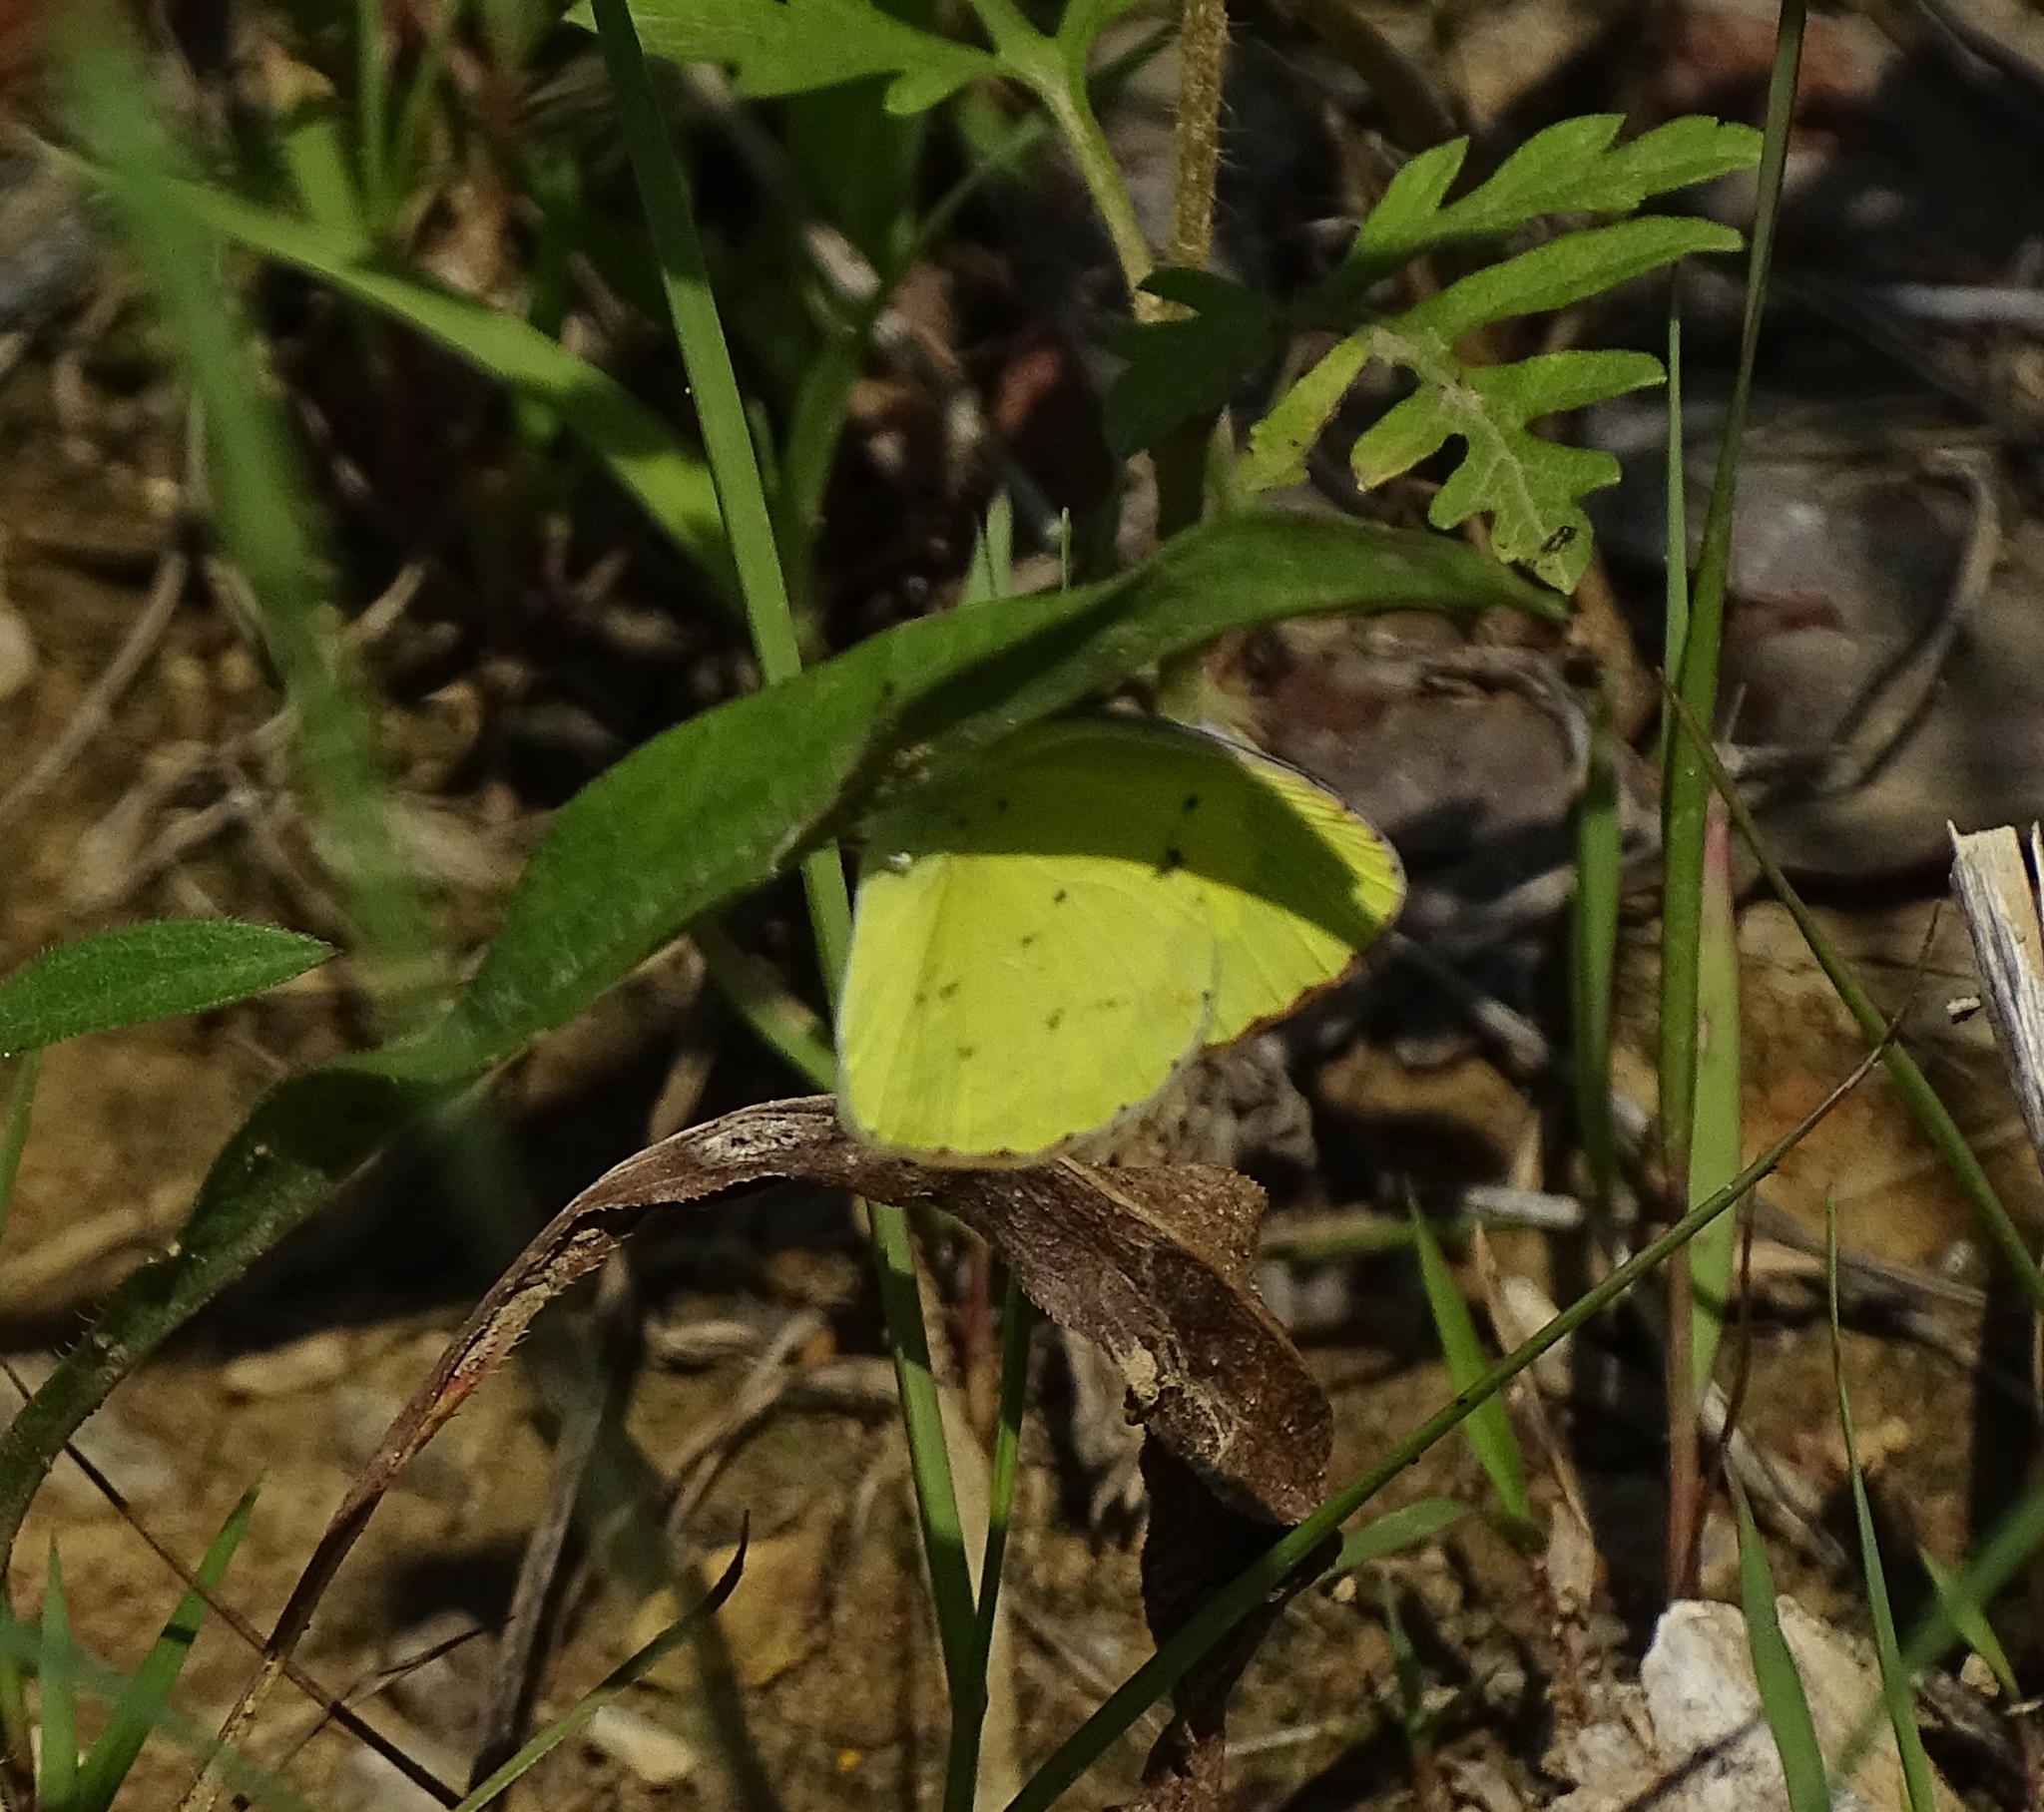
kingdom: Animalia
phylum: Arthropoda
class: Insecta
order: Lepidoptera
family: Pieridae
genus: Pyrisitia
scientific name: Pyrisitia lisa
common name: Little yellow
